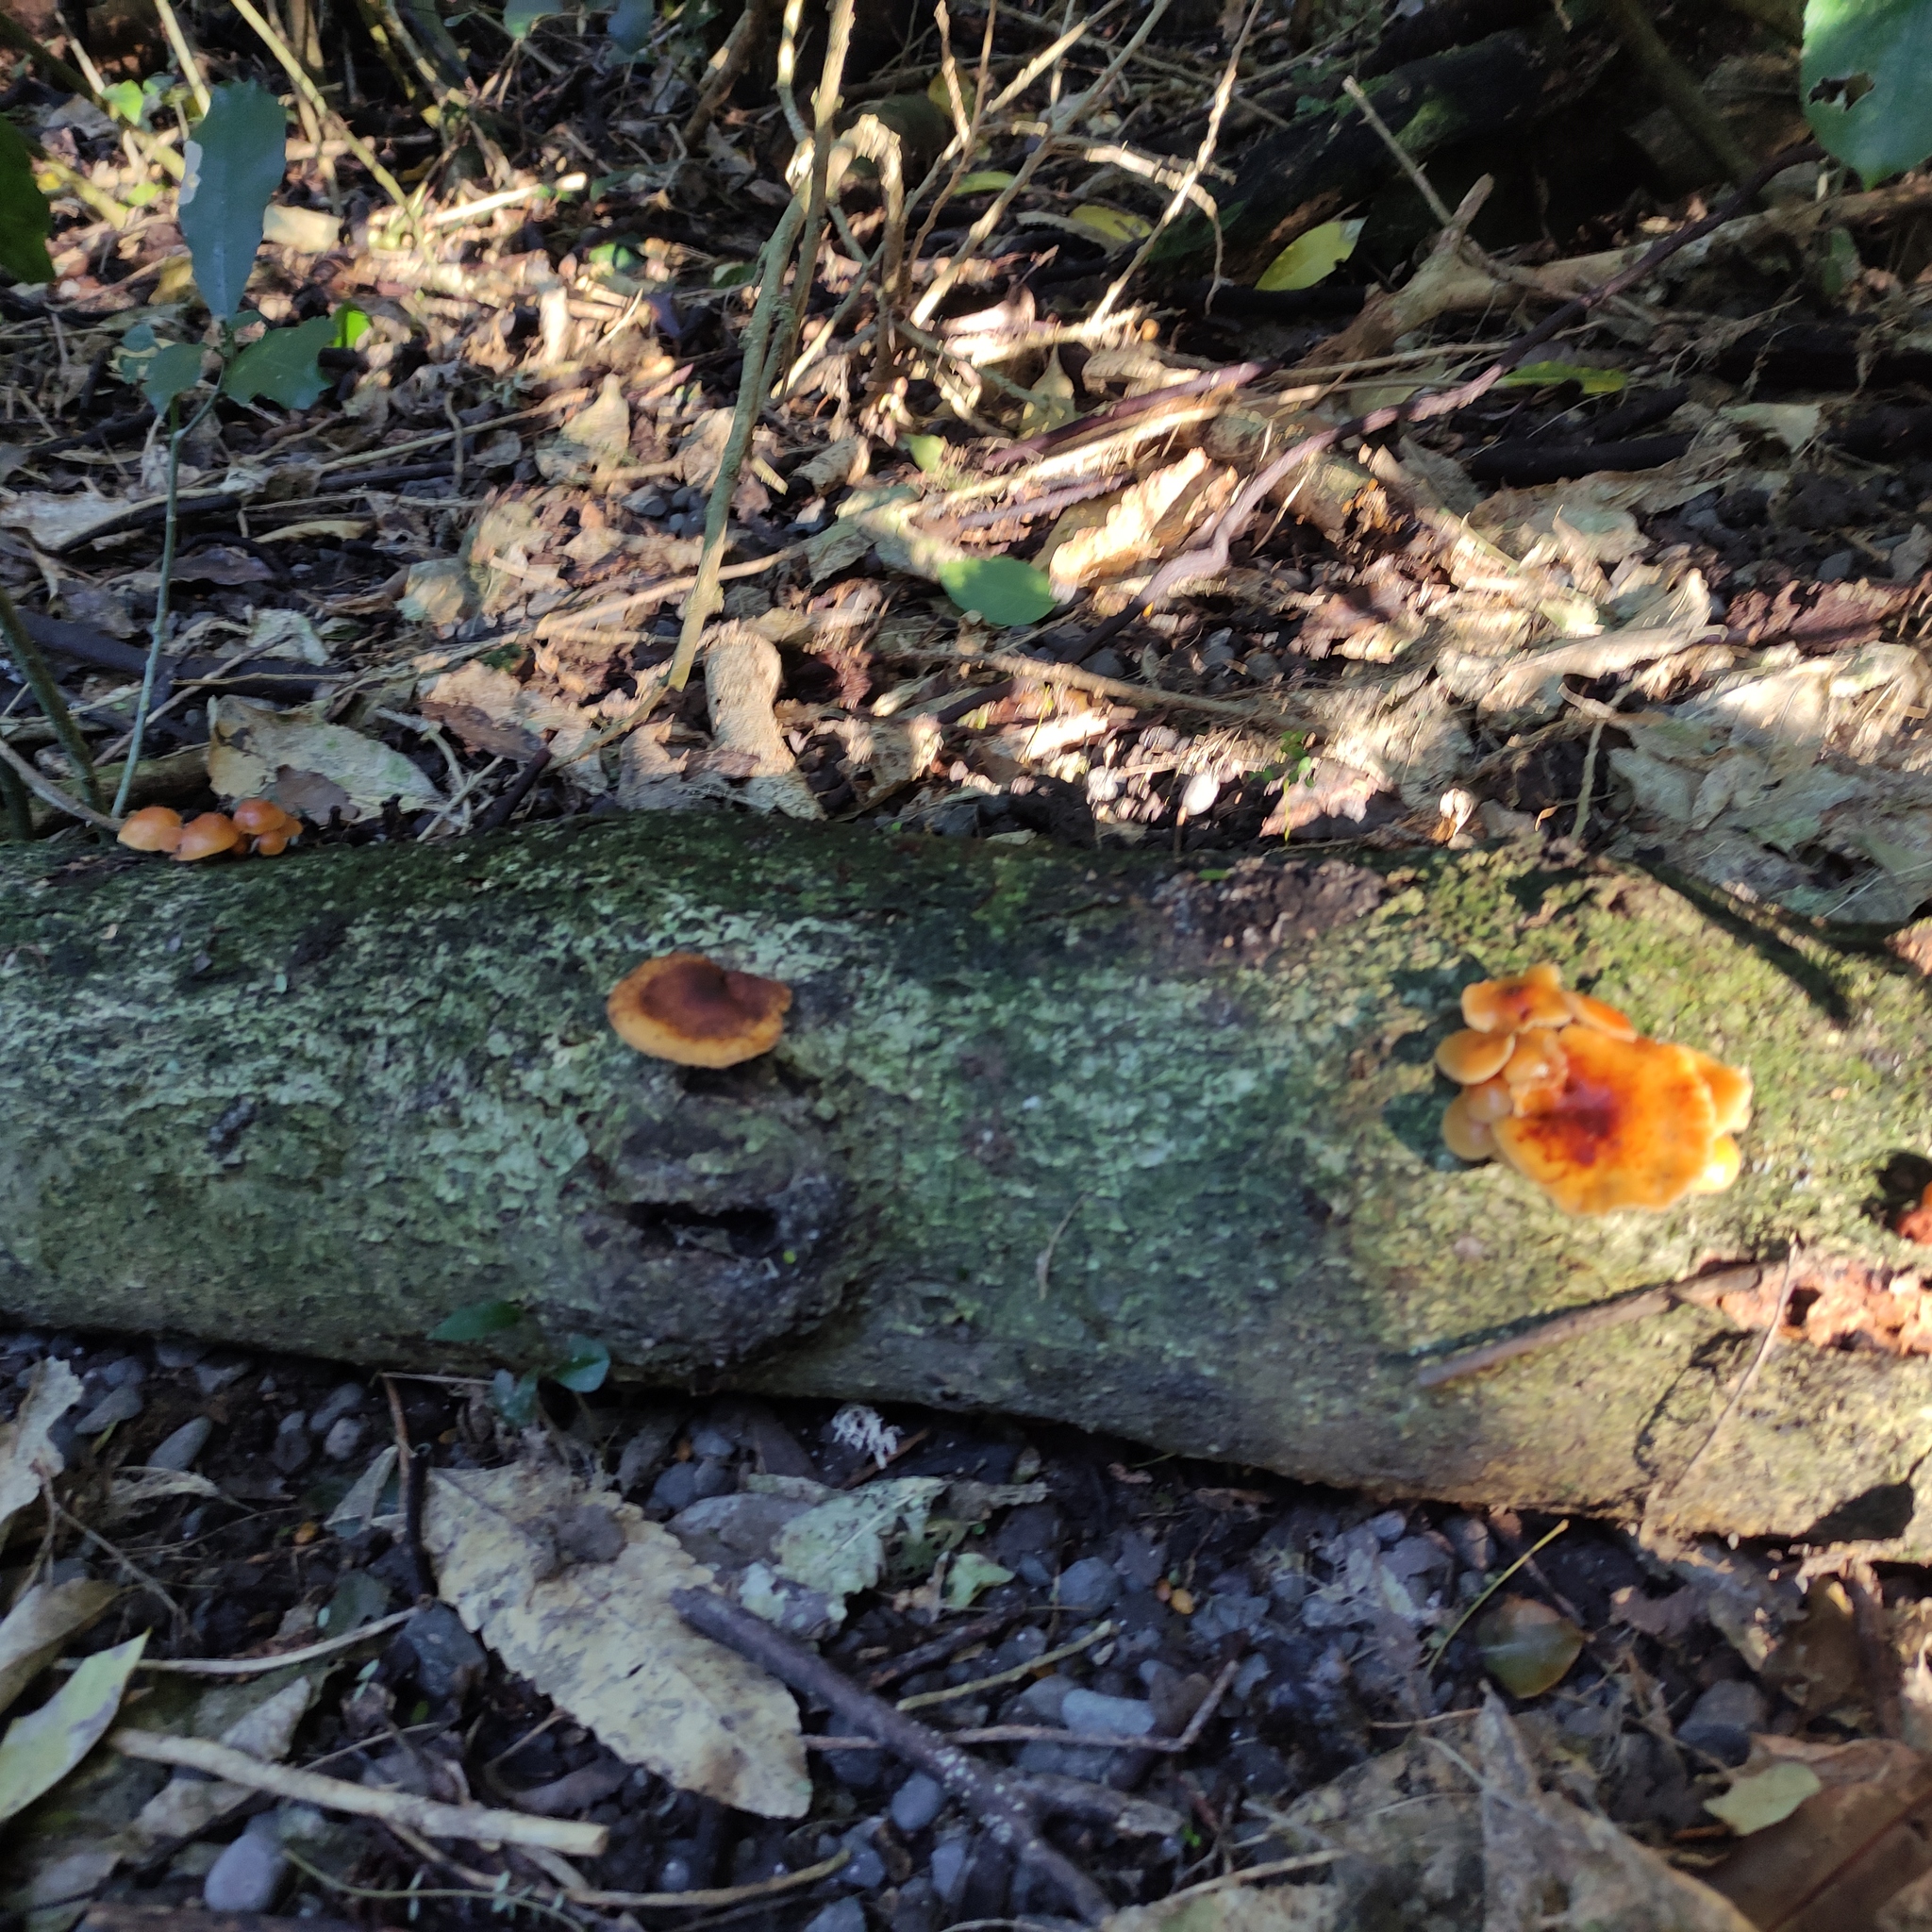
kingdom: Fungi
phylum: Basidiomycota
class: Agaricomycetes
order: Agaricales
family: Physalacriaceae
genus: Flammulina
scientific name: Flammulina velutipes
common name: Velvet shank
